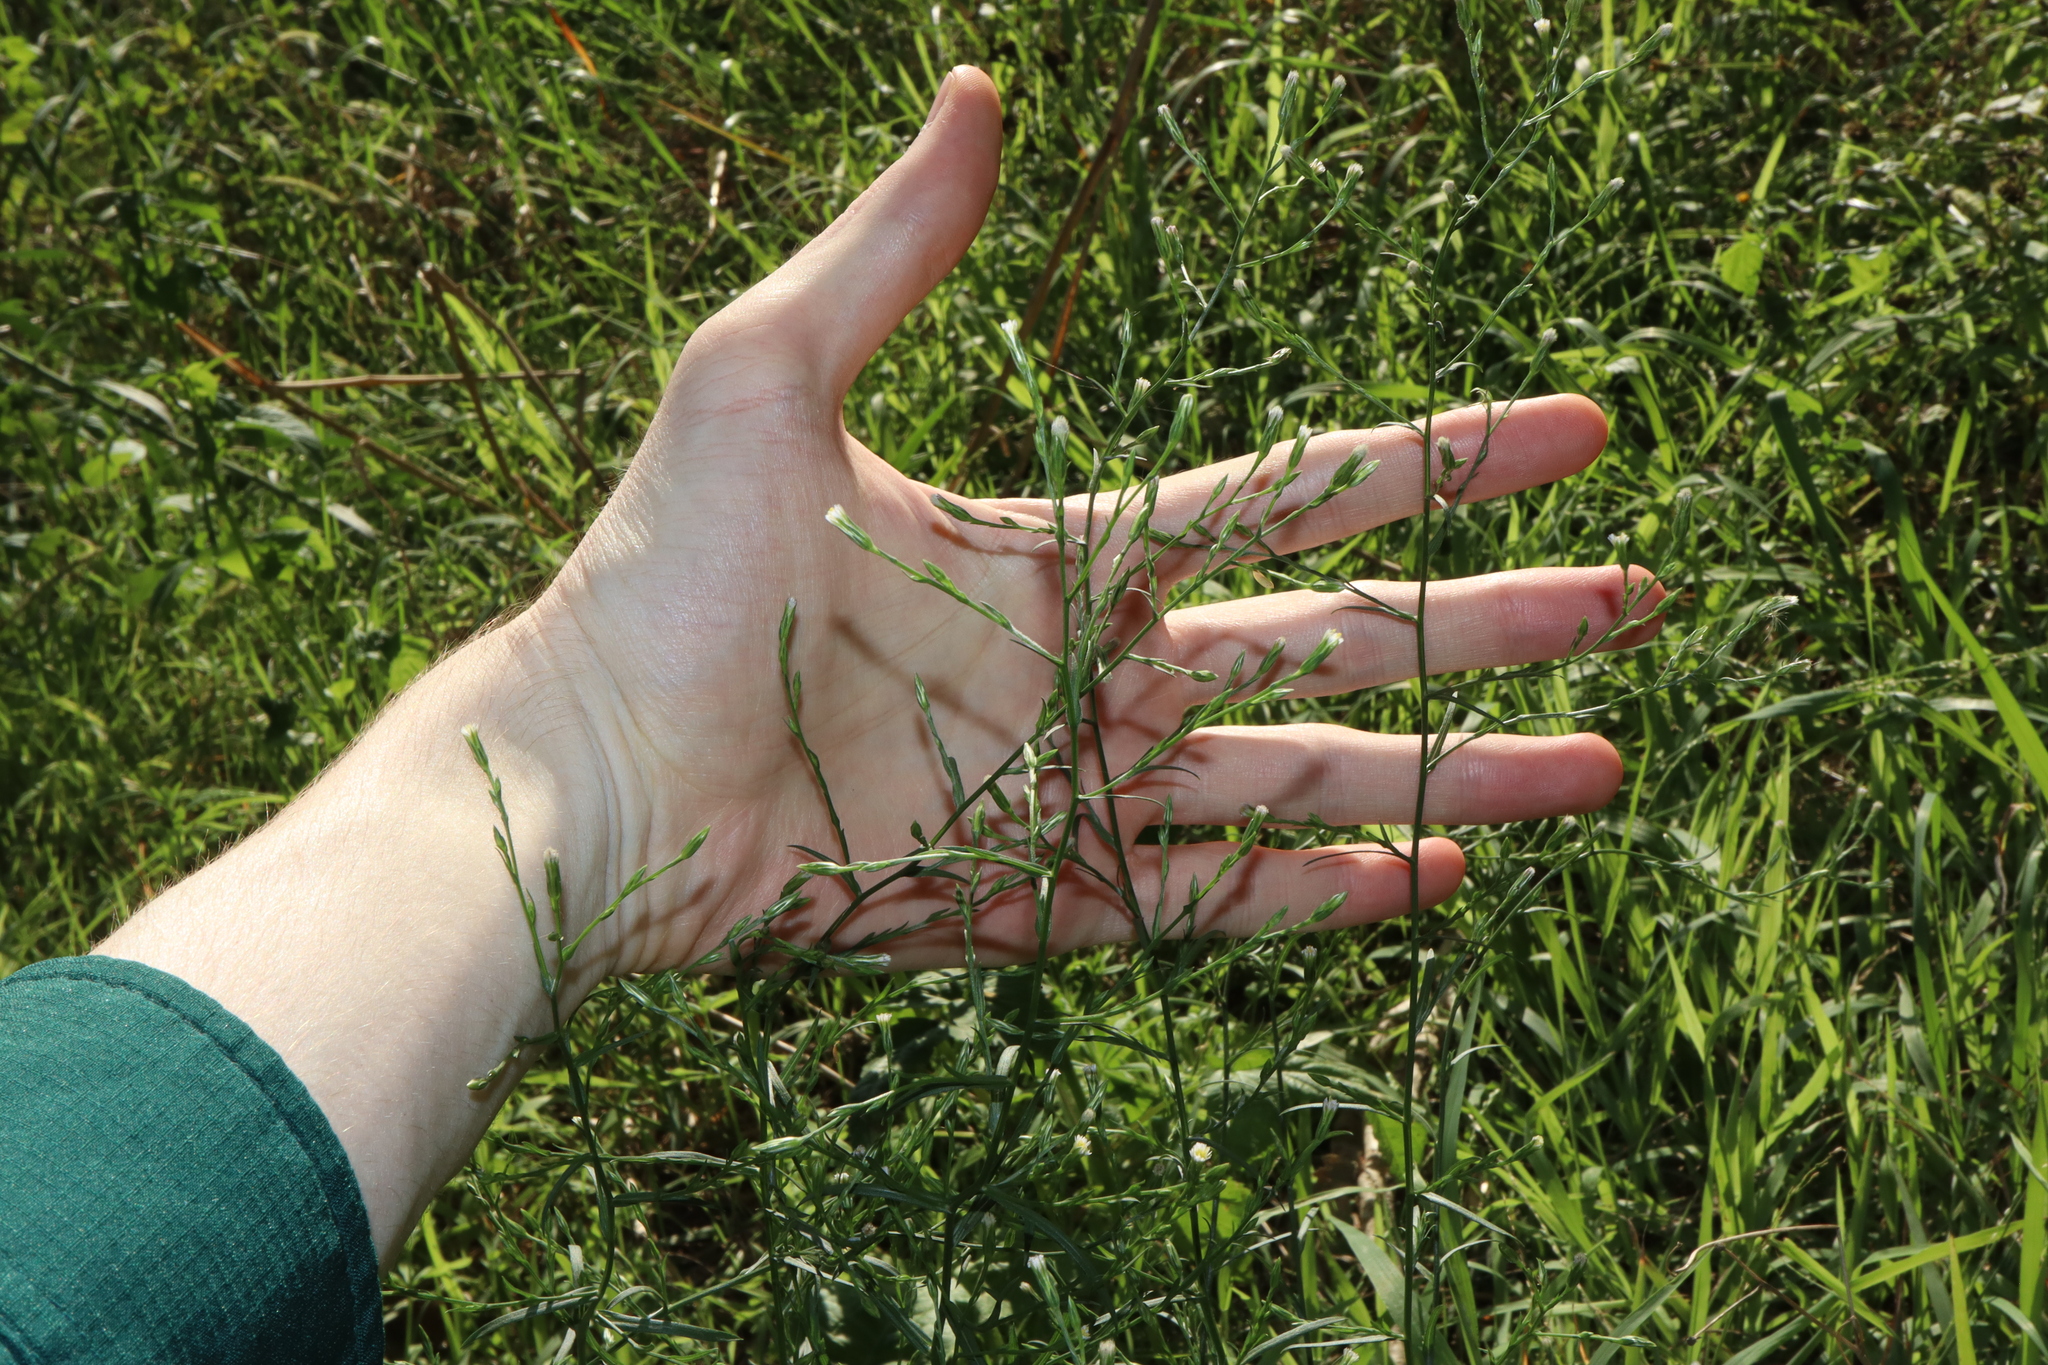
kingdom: Plantae
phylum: Tracheophyta
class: Magnoliopsida
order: Asterales
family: Asteraceae
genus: Symphyotrichum
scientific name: Symphyotrichum subulatum
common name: Annual saltmarsh aster
